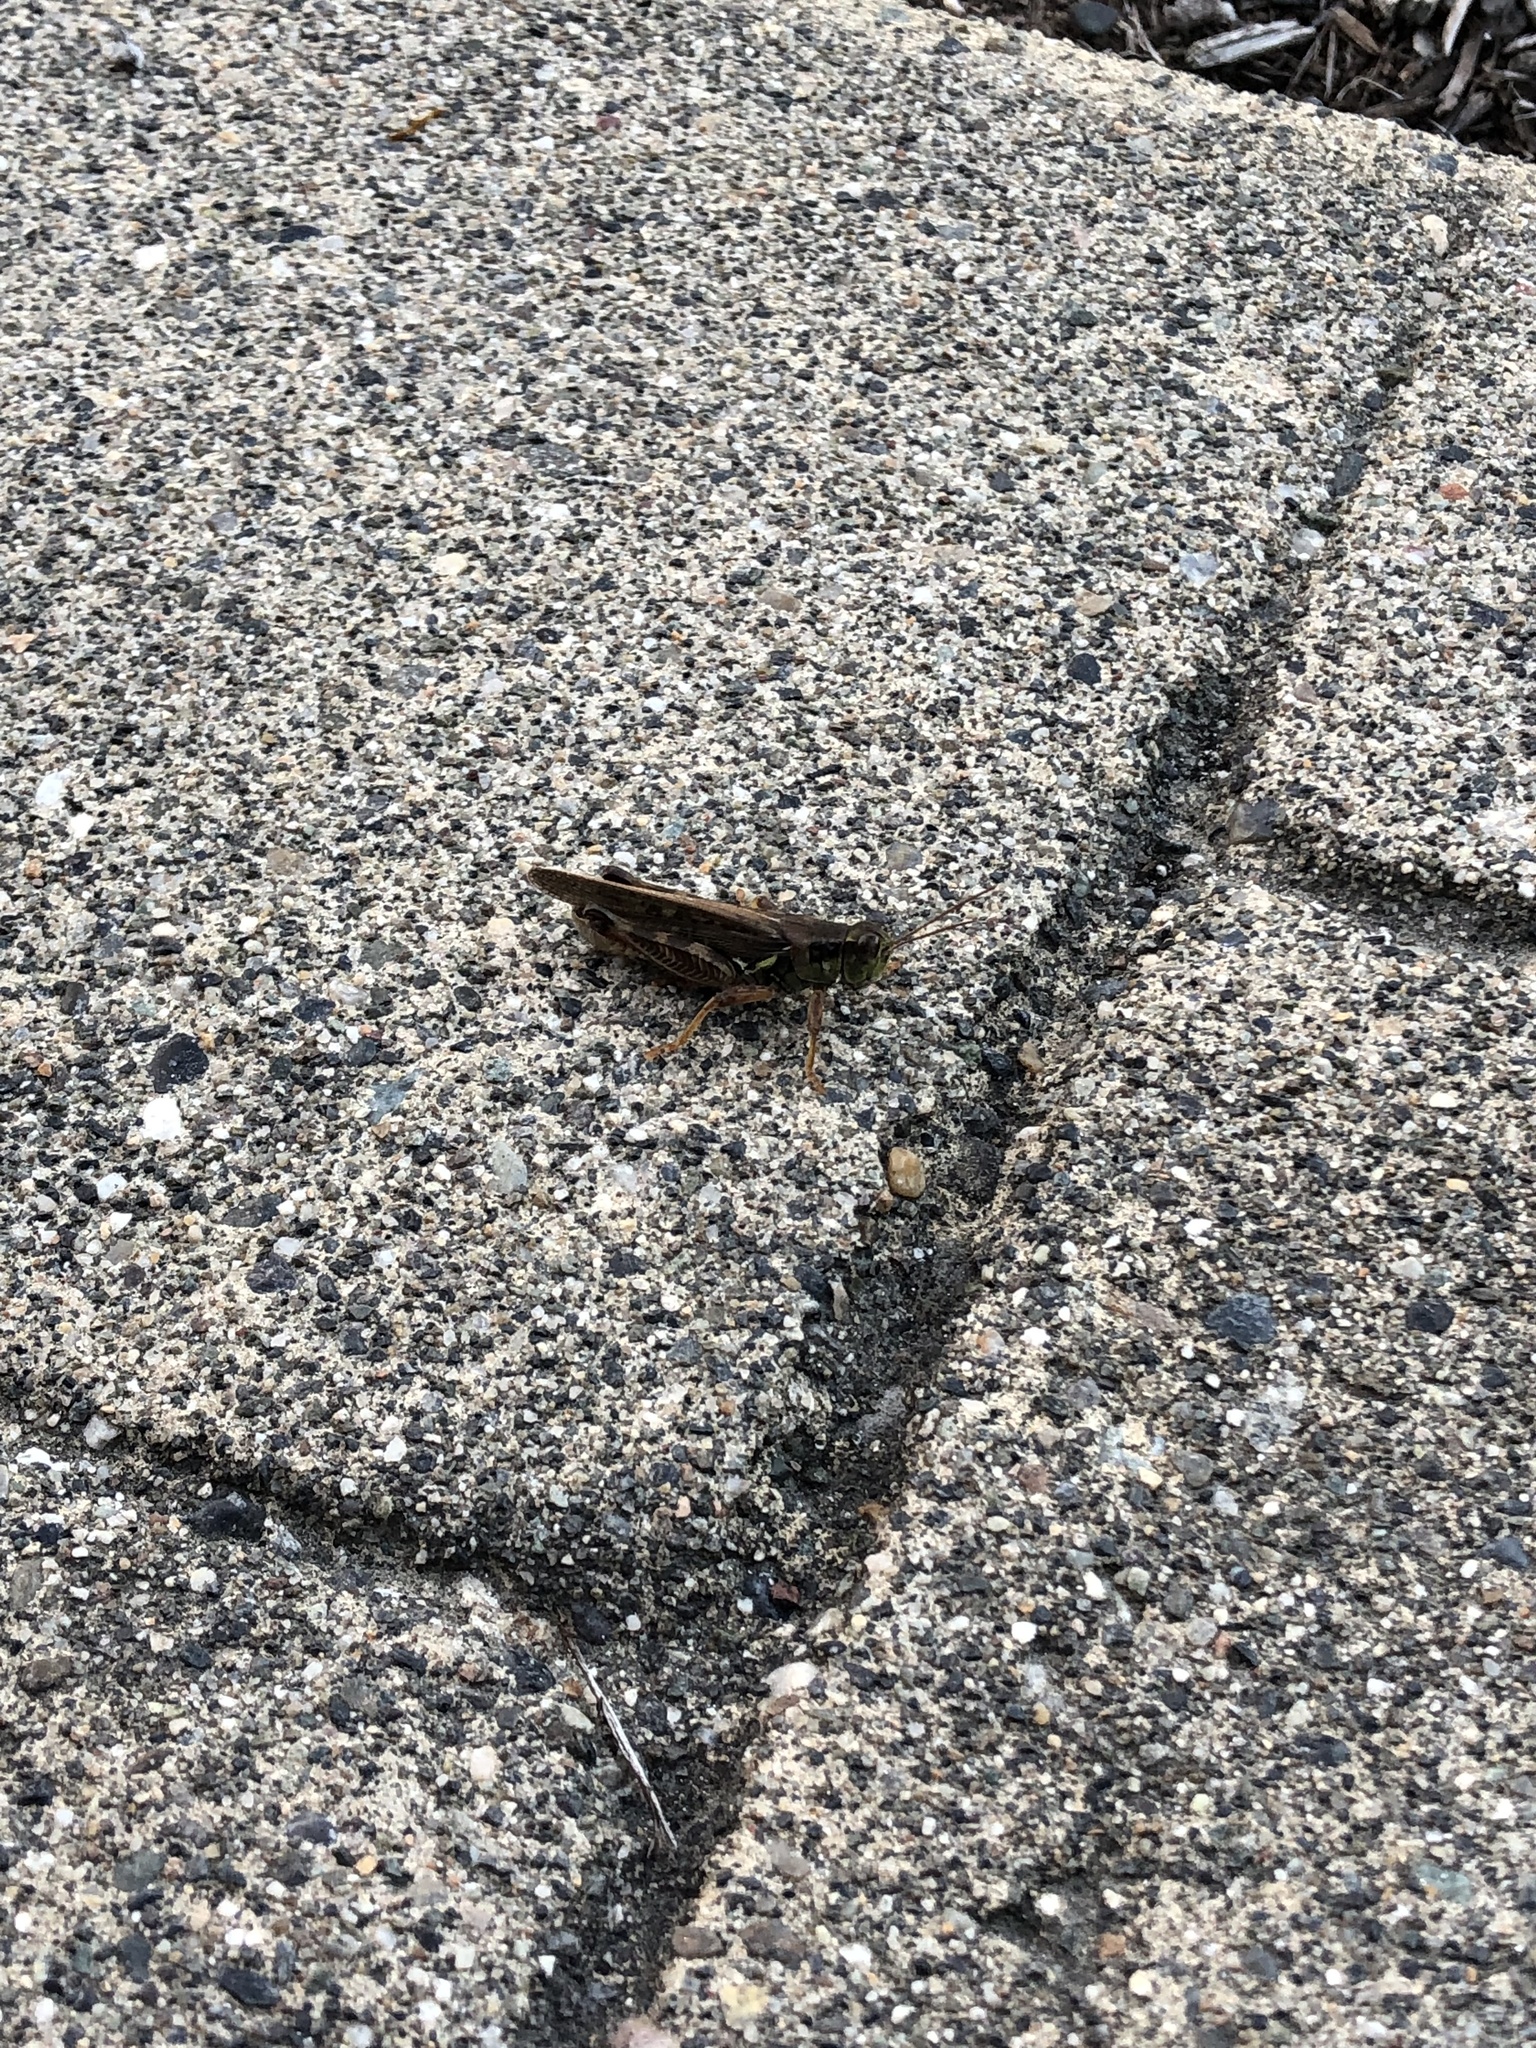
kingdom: Animalia
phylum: Arthropoda
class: Insecta
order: Orthoptera
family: Acrididae
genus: Melanoplus
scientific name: Melanoplus sanguinipes
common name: Migratory grasshopper
